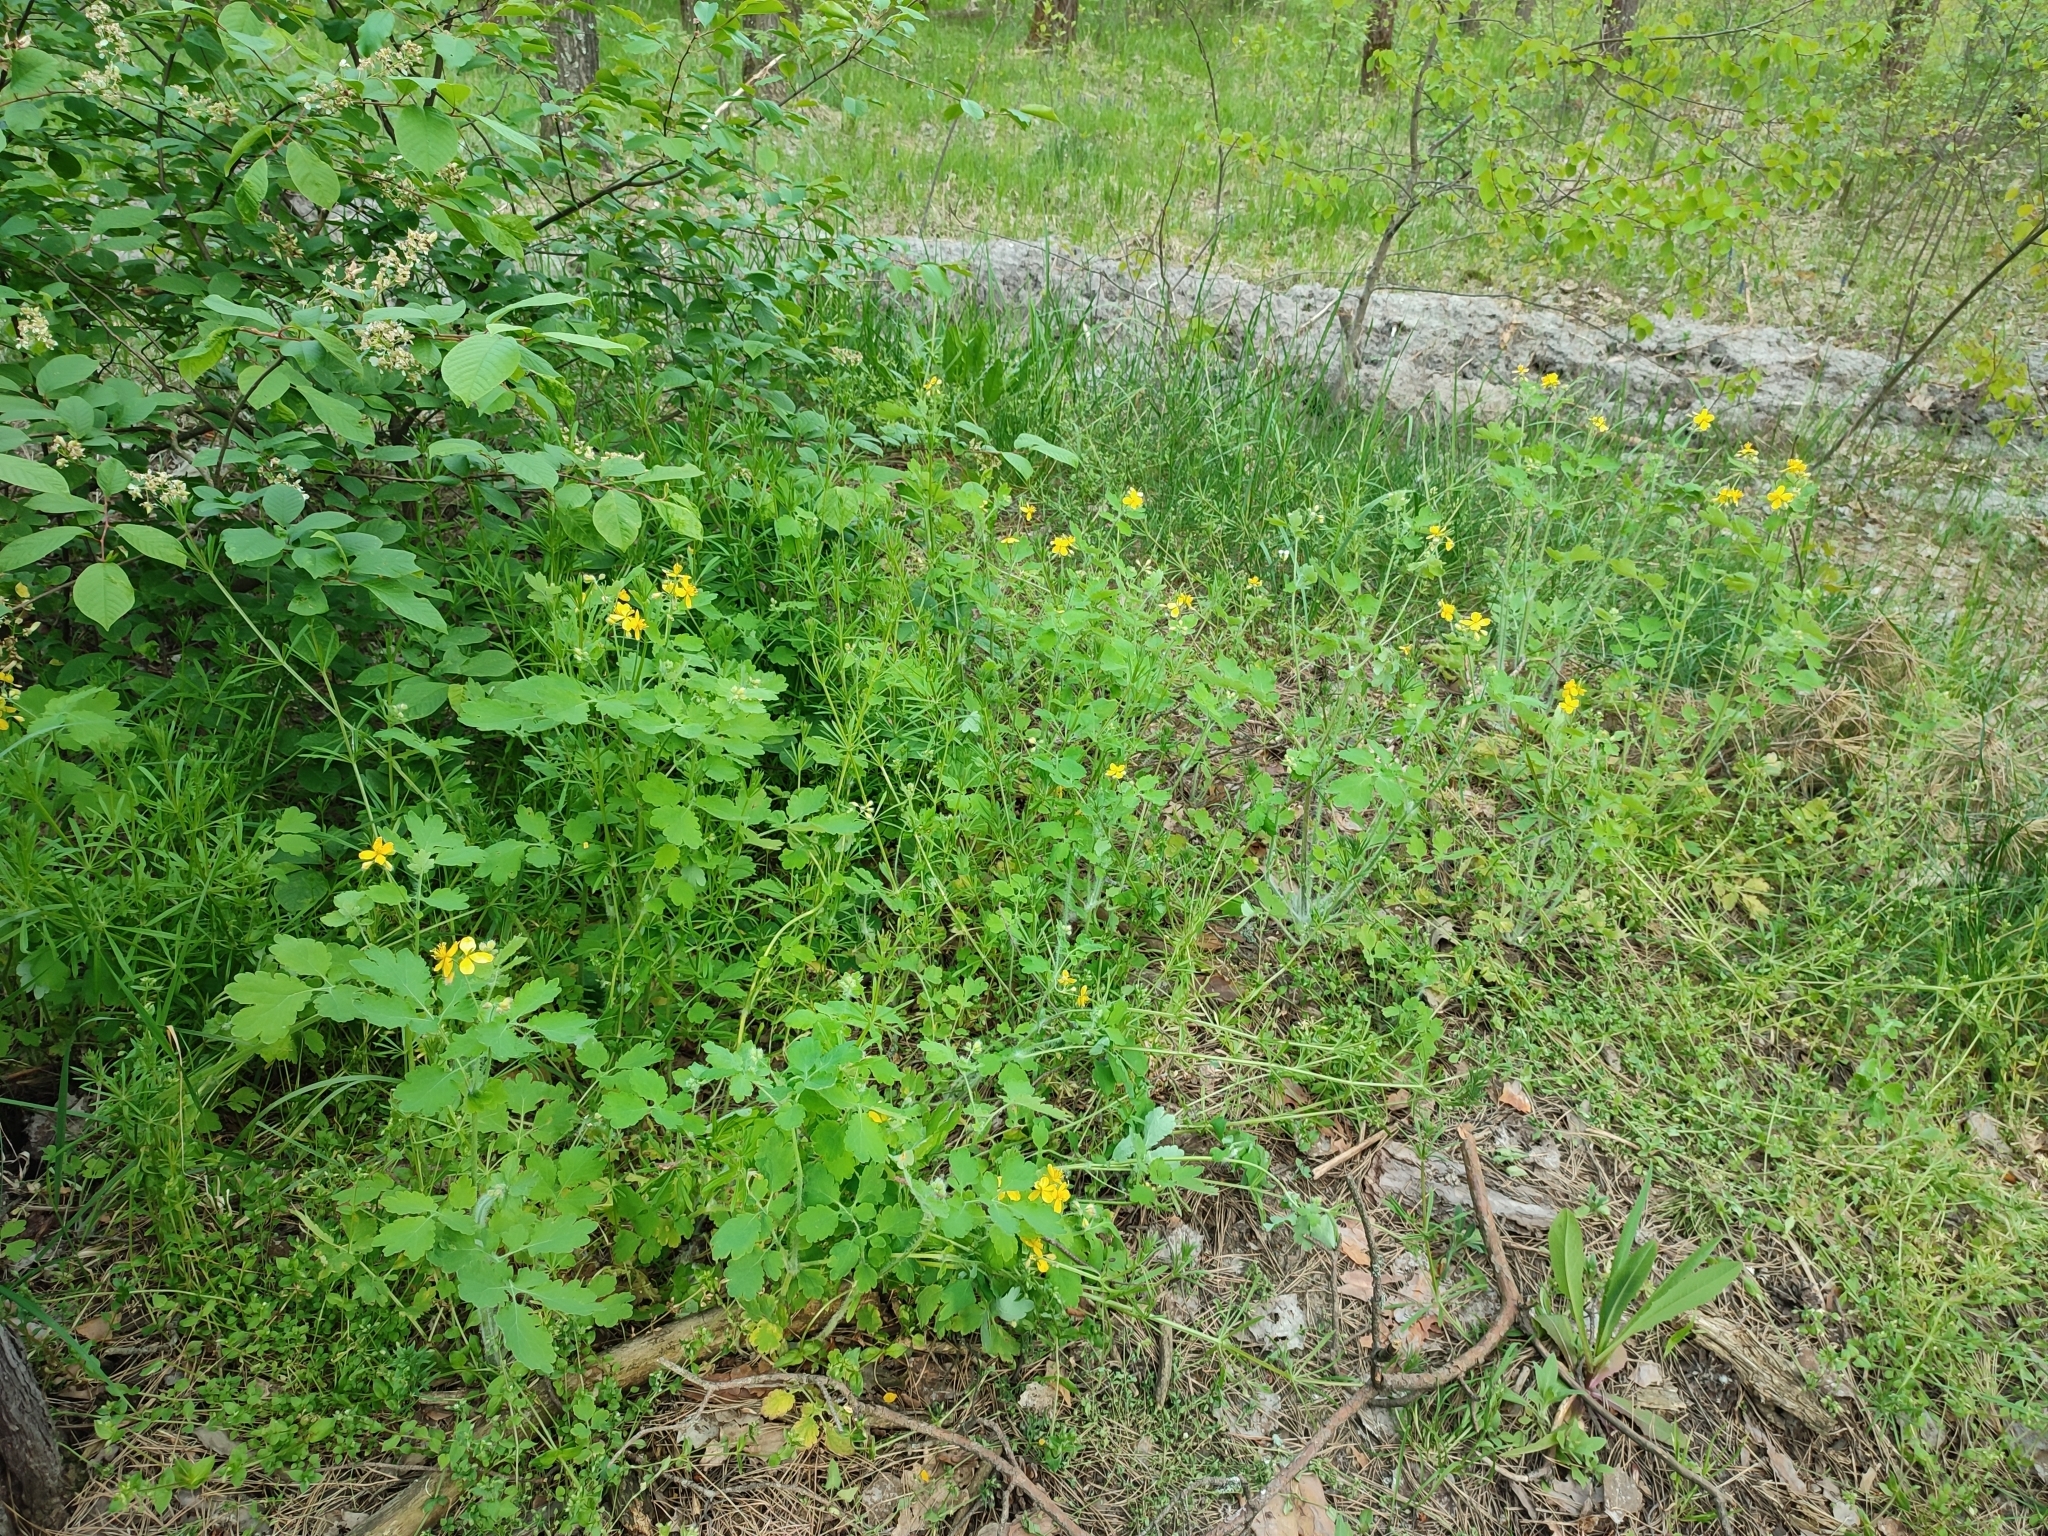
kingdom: Plantae
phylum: Tracheophyta
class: Magnoliopsida
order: Ranunculales
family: Papaveraceae
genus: Chelidonium
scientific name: Chelidonium majus
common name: Greater celandine
